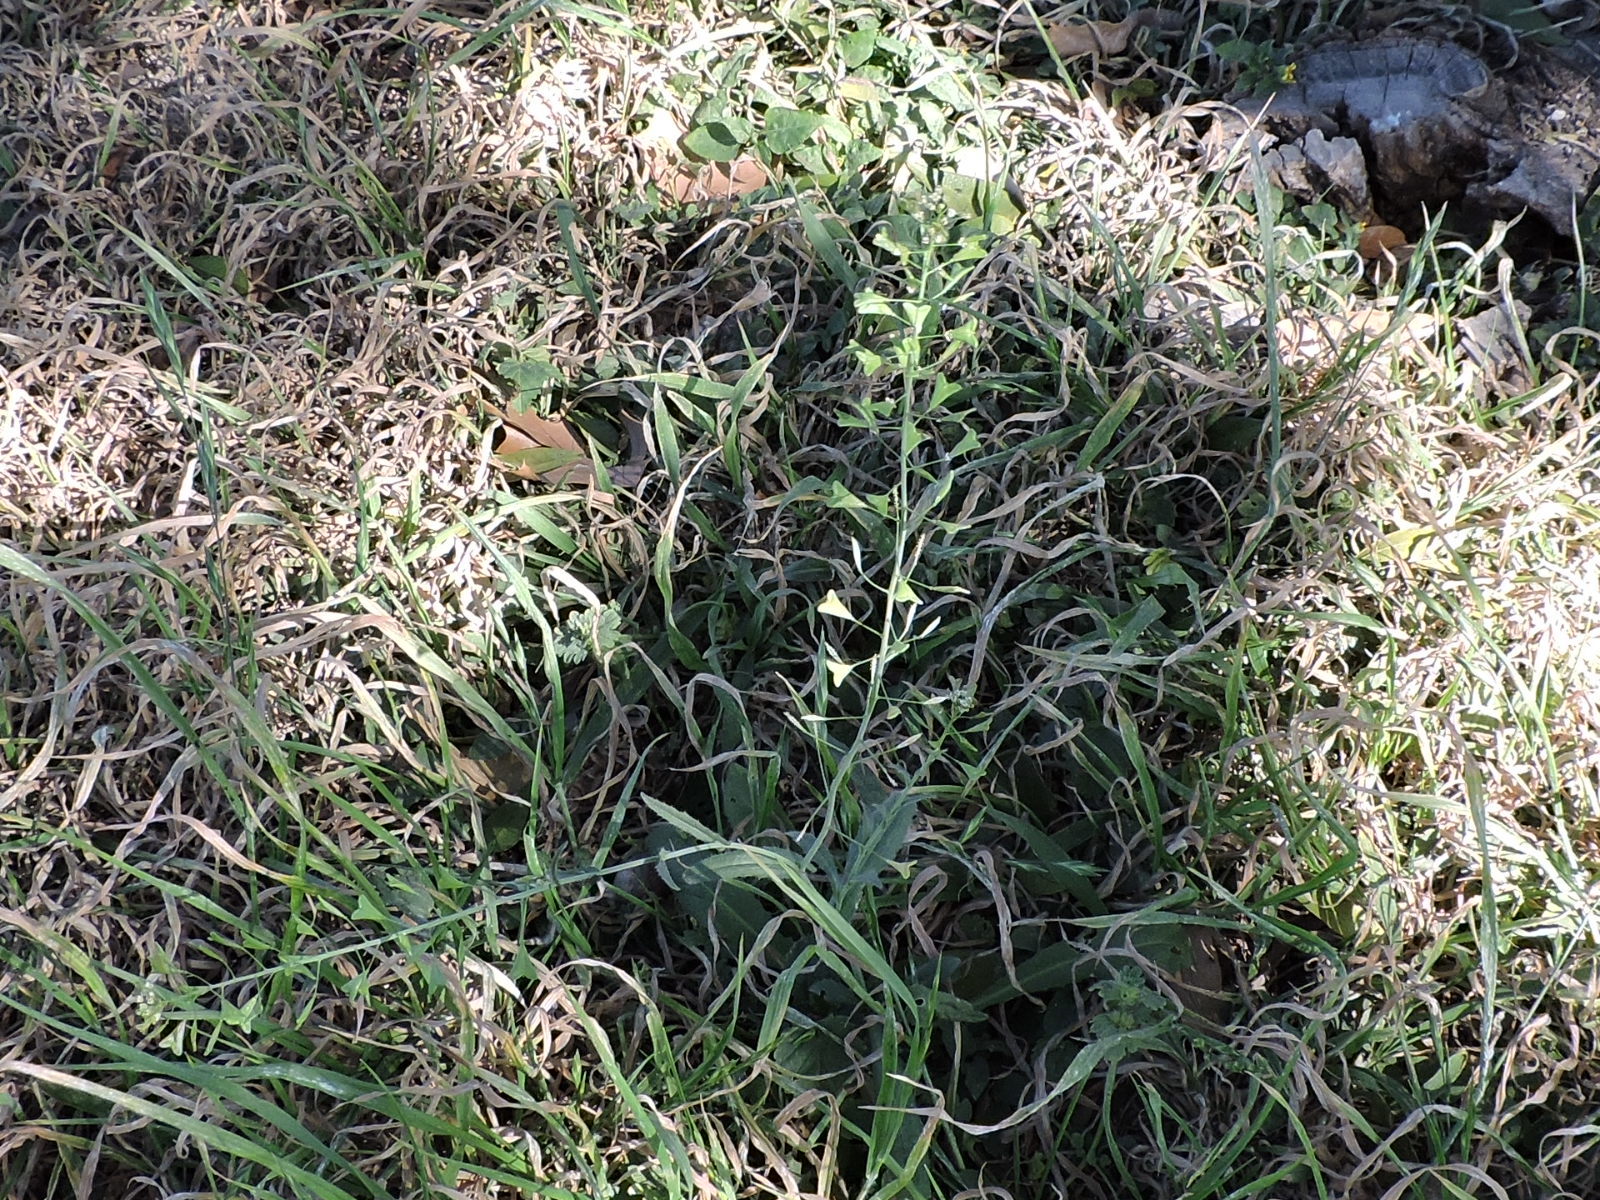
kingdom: Plantae
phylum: Tracheophyta
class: Magnoliopsida
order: Brassicales
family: Brassicaceae
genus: Capsella
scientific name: Capsella bursa-pastoris
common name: Shepherd's purse
